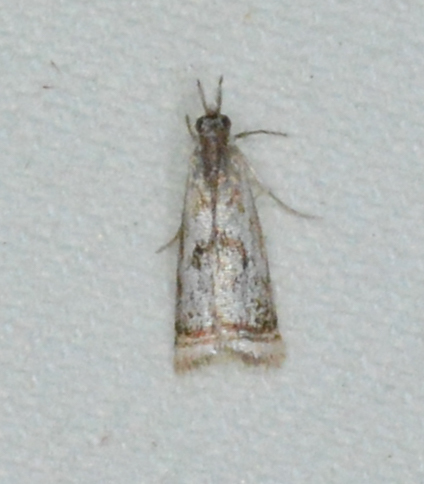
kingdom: Animalia
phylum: Arthropoda
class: Insecta
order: Lepidoptera
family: Crambidae
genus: Microcrambus
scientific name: Microcrambus elegans
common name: Elegant grass-veneer
